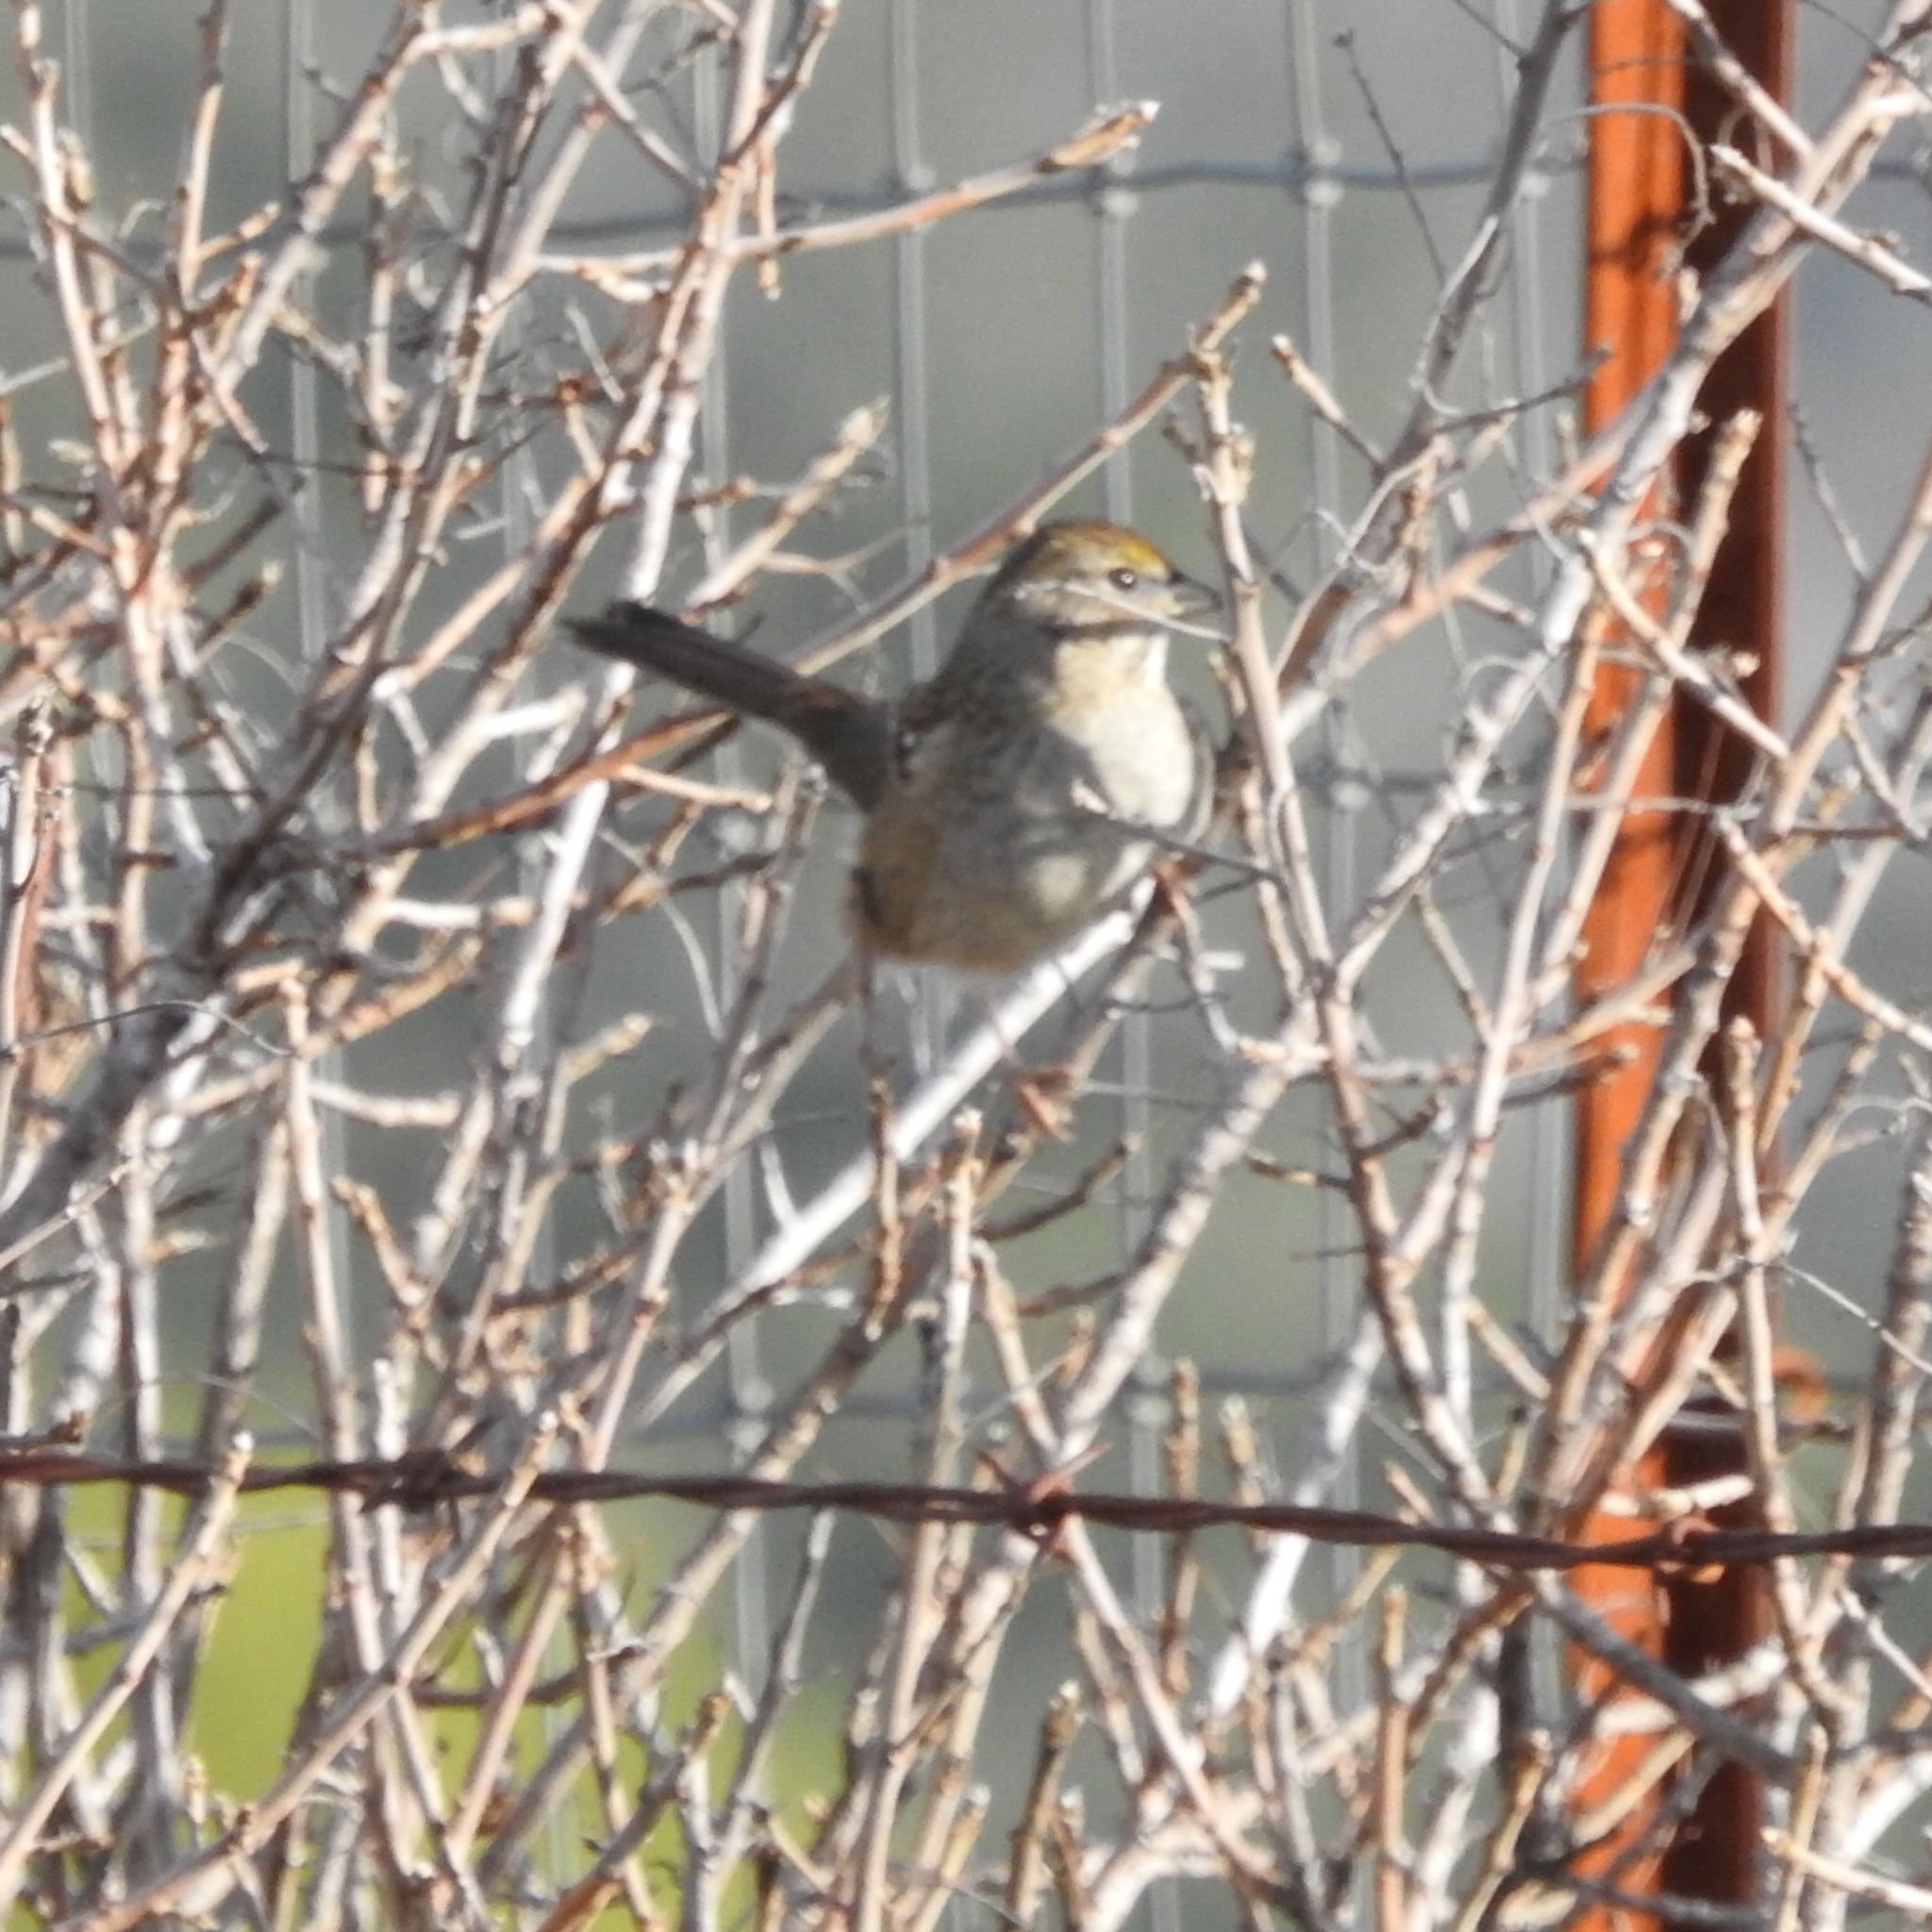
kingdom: Animalia
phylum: Chordata
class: Aves
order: Passeriformes
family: Passerellidae
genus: Zonotrichia
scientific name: Zonotrichia atricapilla
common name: Golden-crowned sparrow
